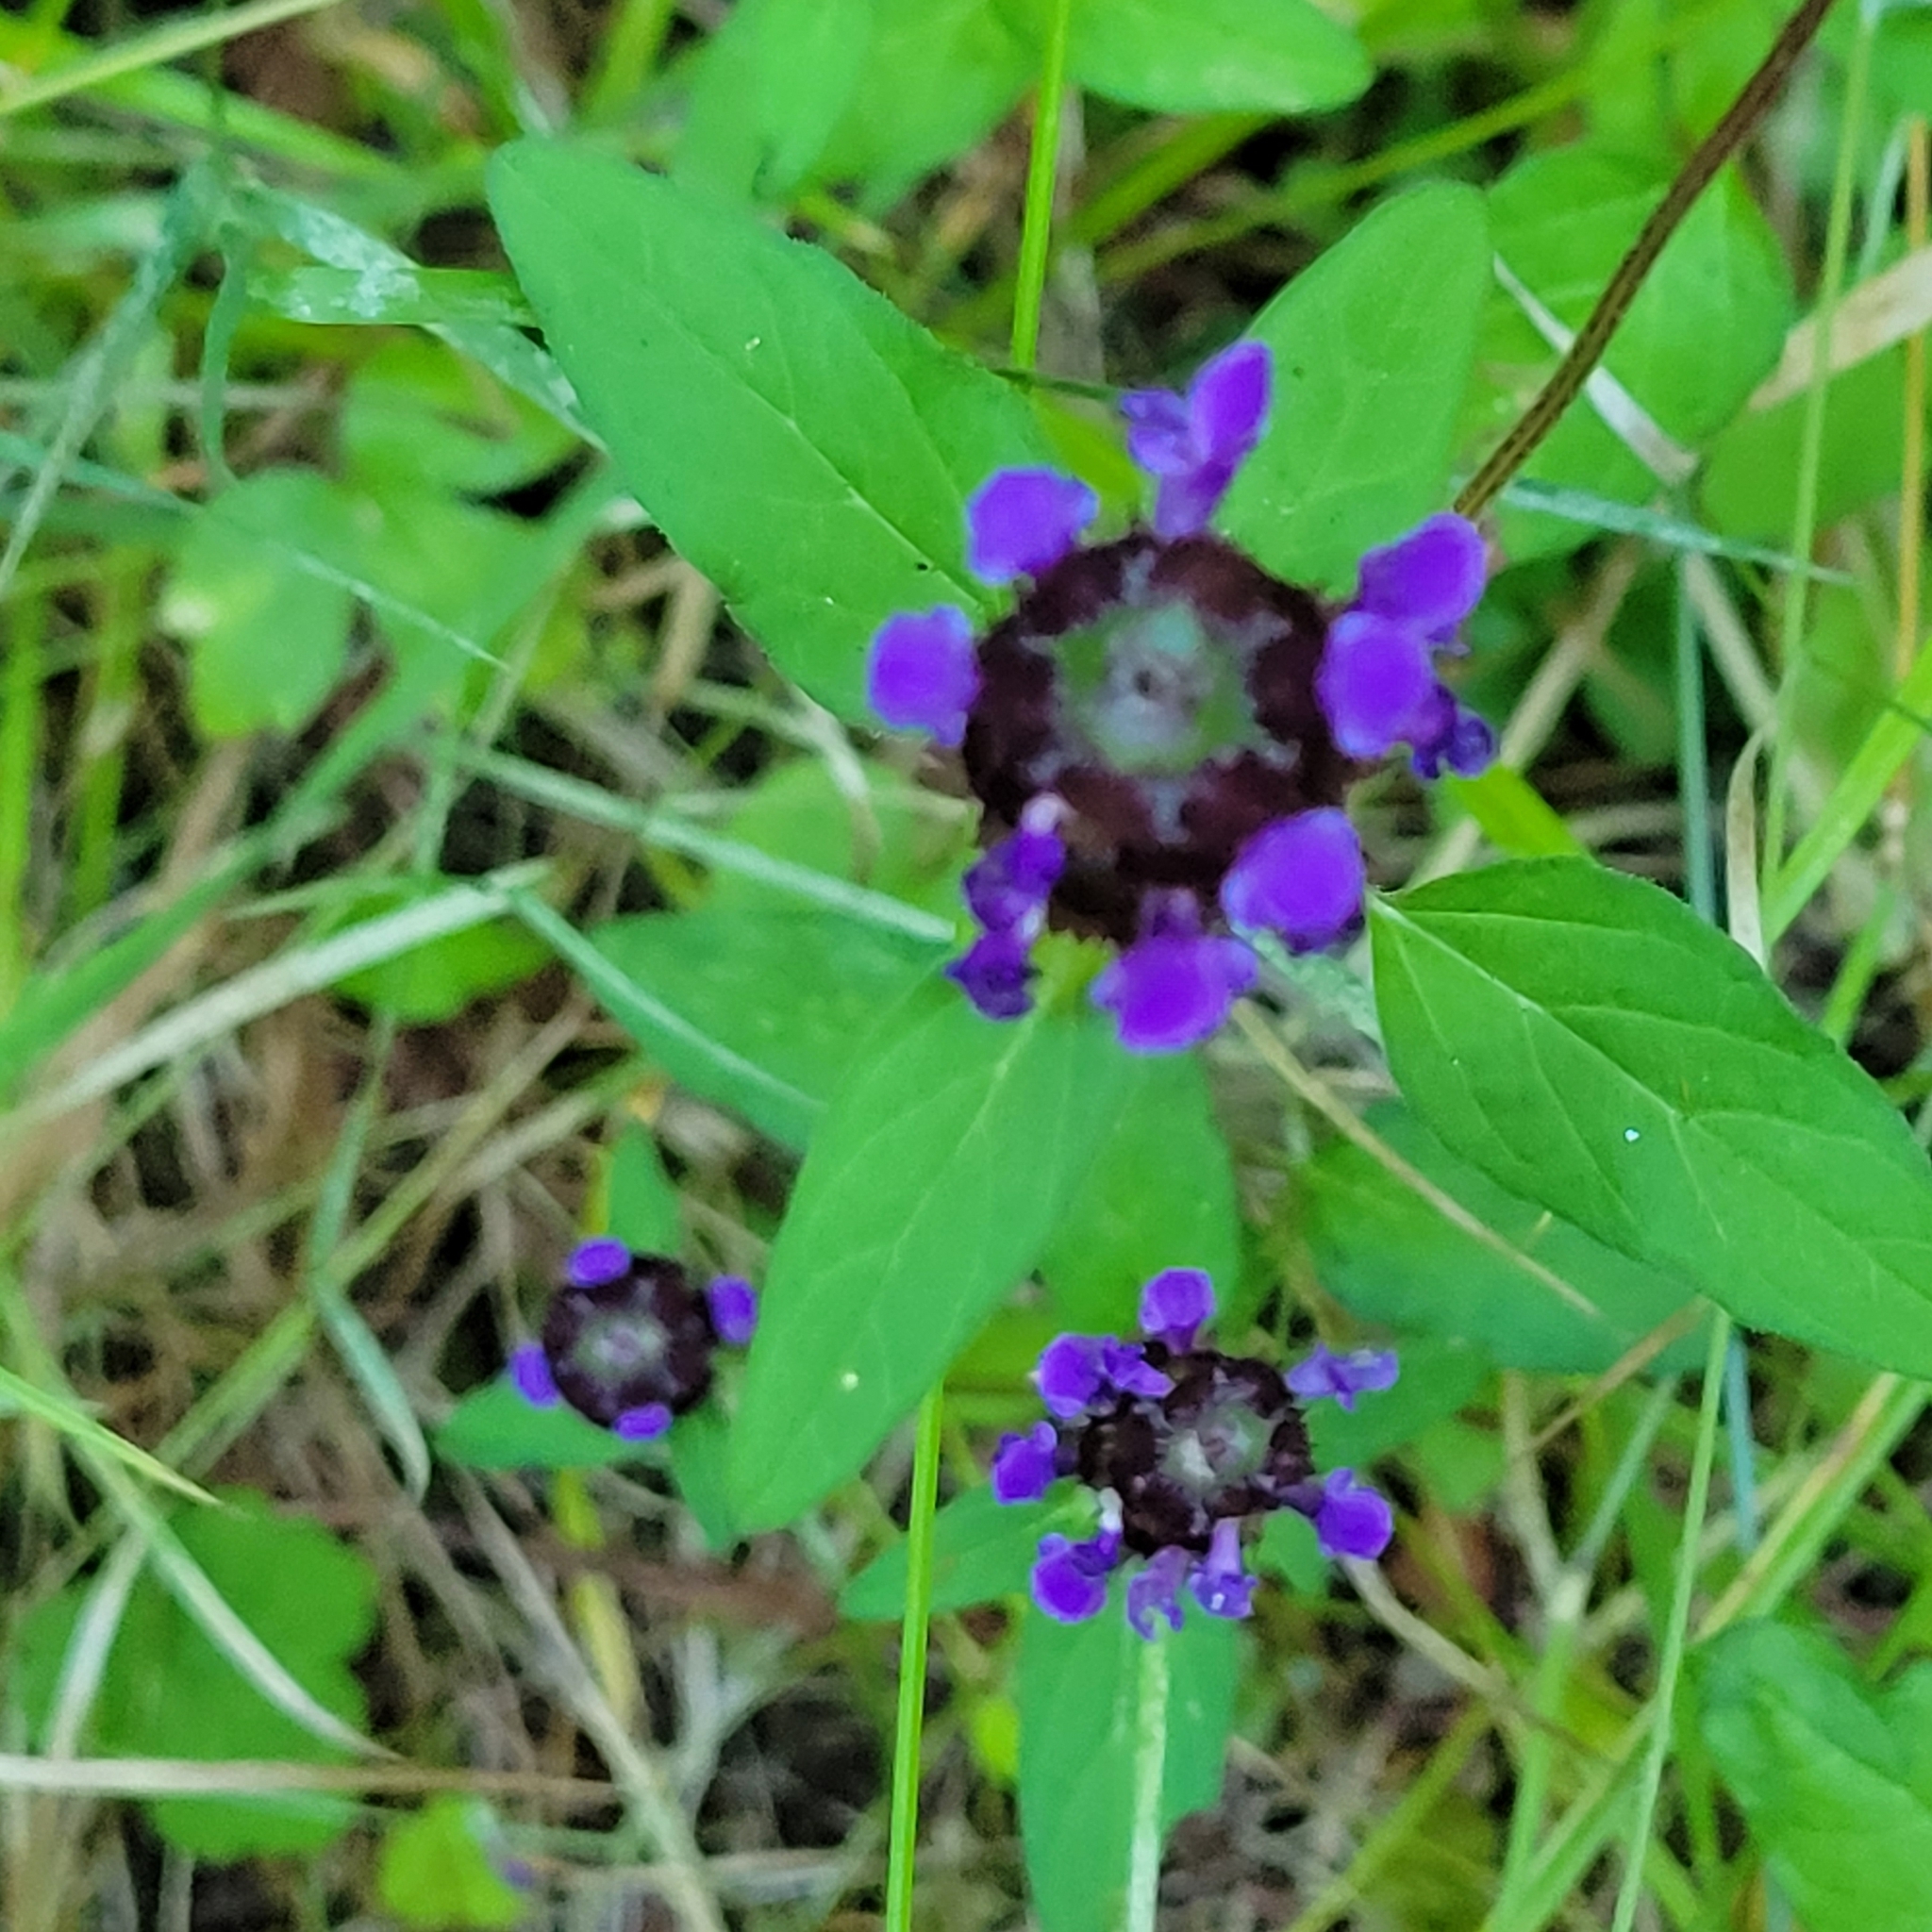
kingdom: Plantae
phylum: Tracheophyta
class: Magnoliopsida
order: Lamiales
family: Lamiaceae
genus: Prunella
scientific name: Prunella vulgaris
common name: Heal-all
